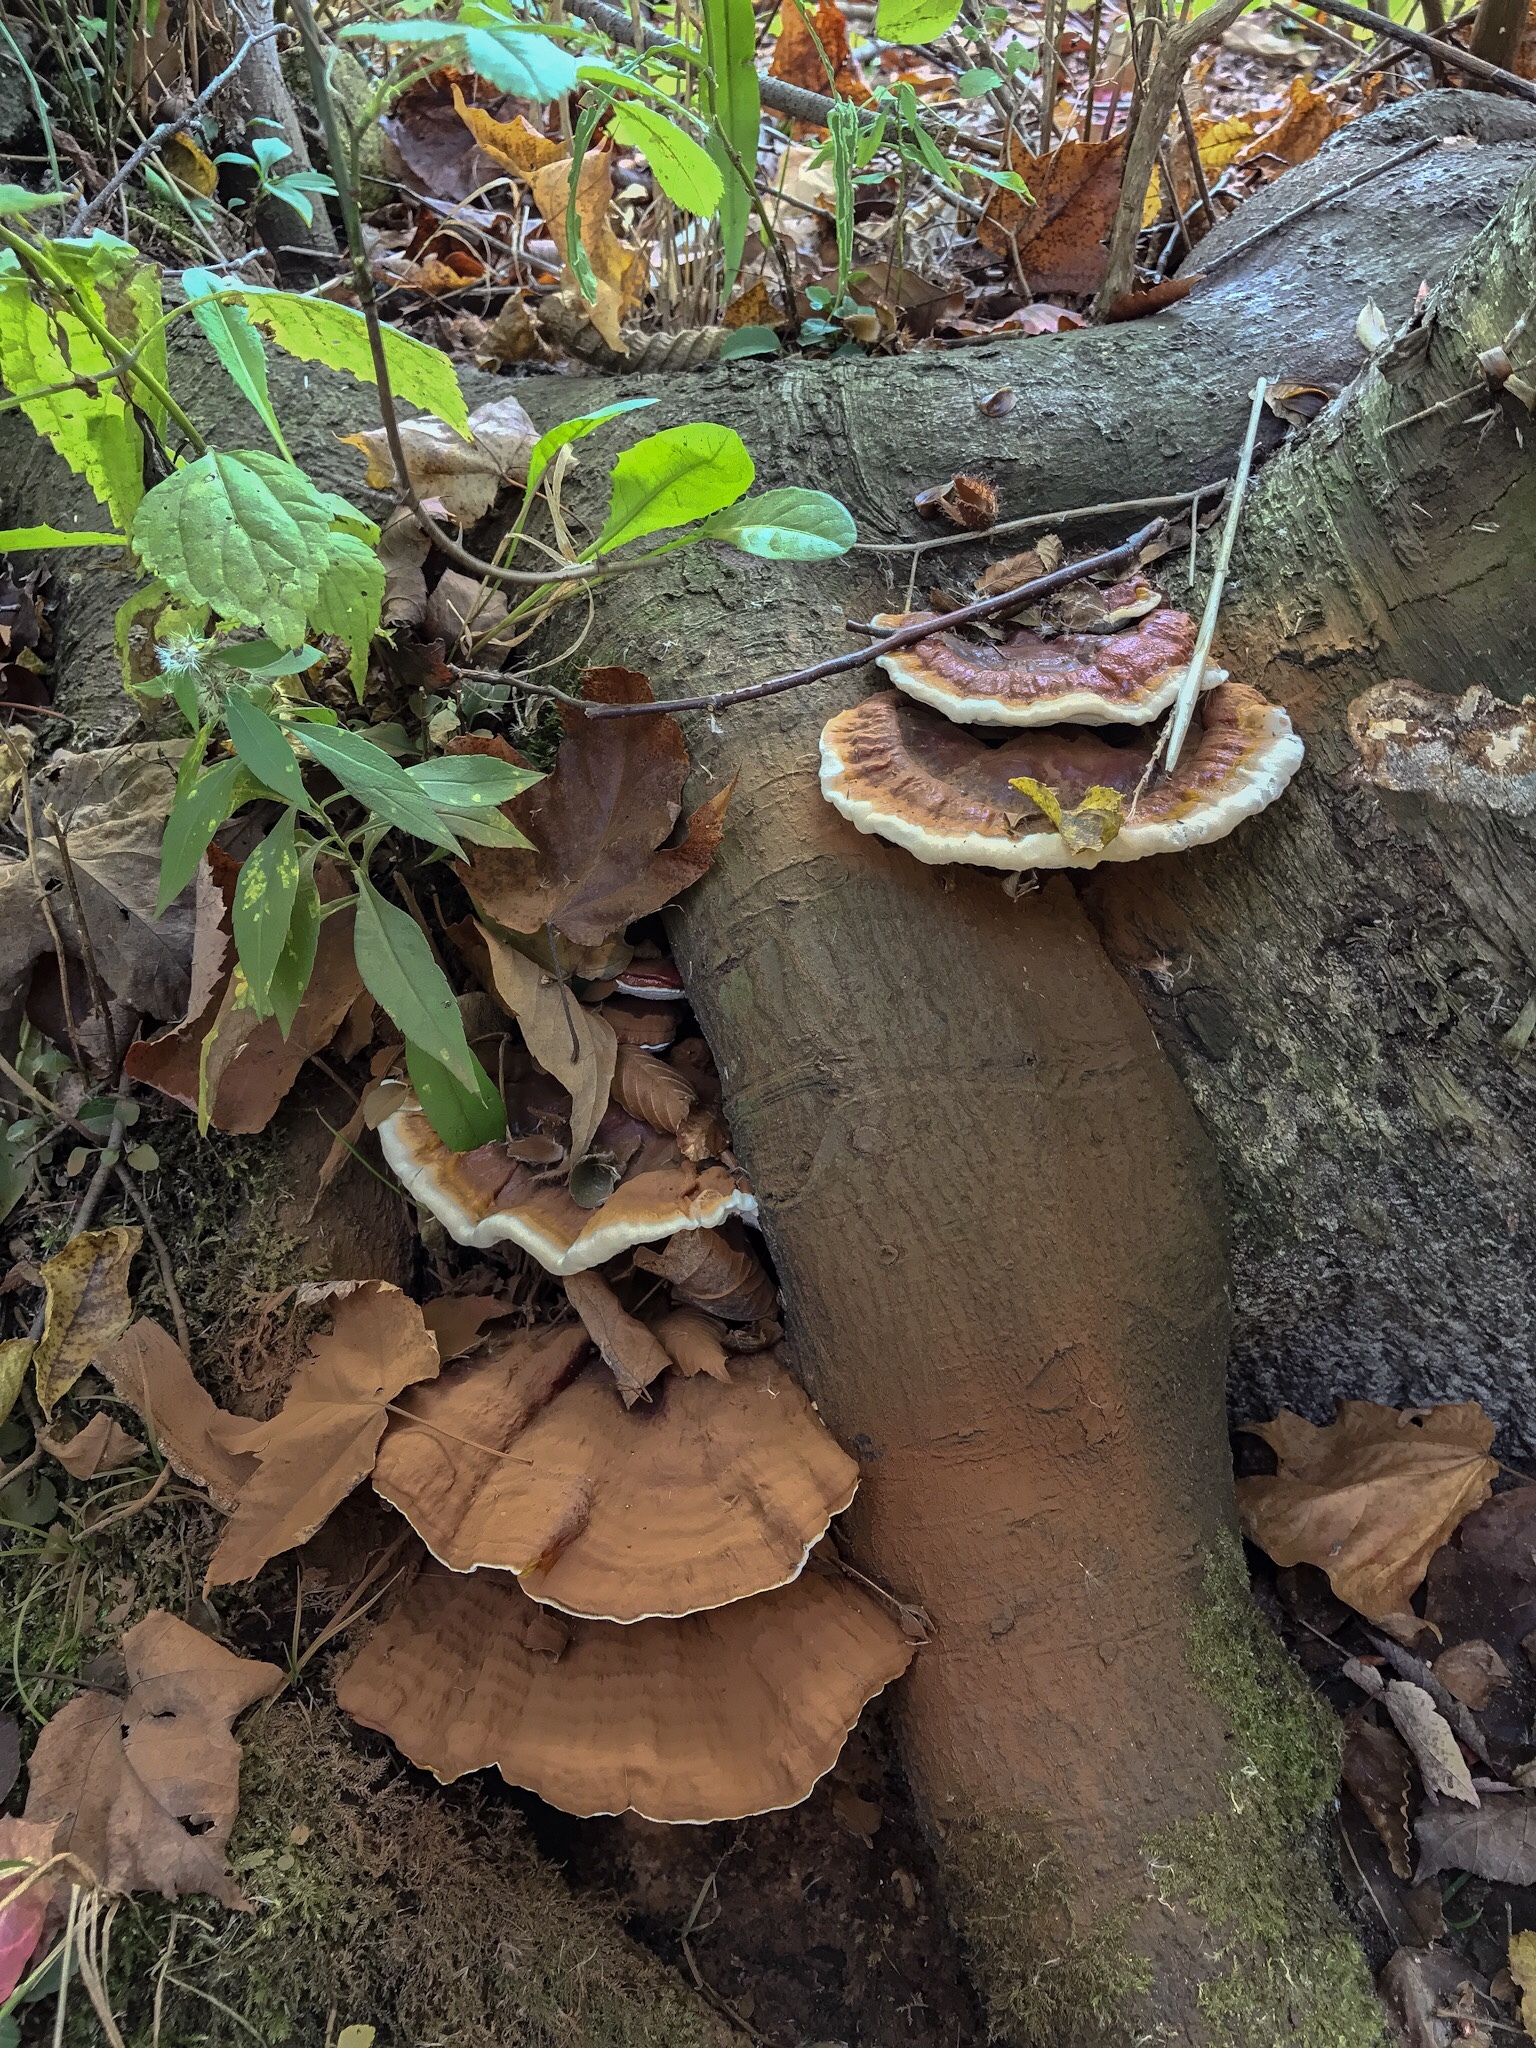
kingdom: Fungi
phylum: Basidiomycota
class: Agaricomycetes
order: Polyporales
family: Polyporaceae
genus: Ganoderma
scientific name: Ganoderma resinaceum
